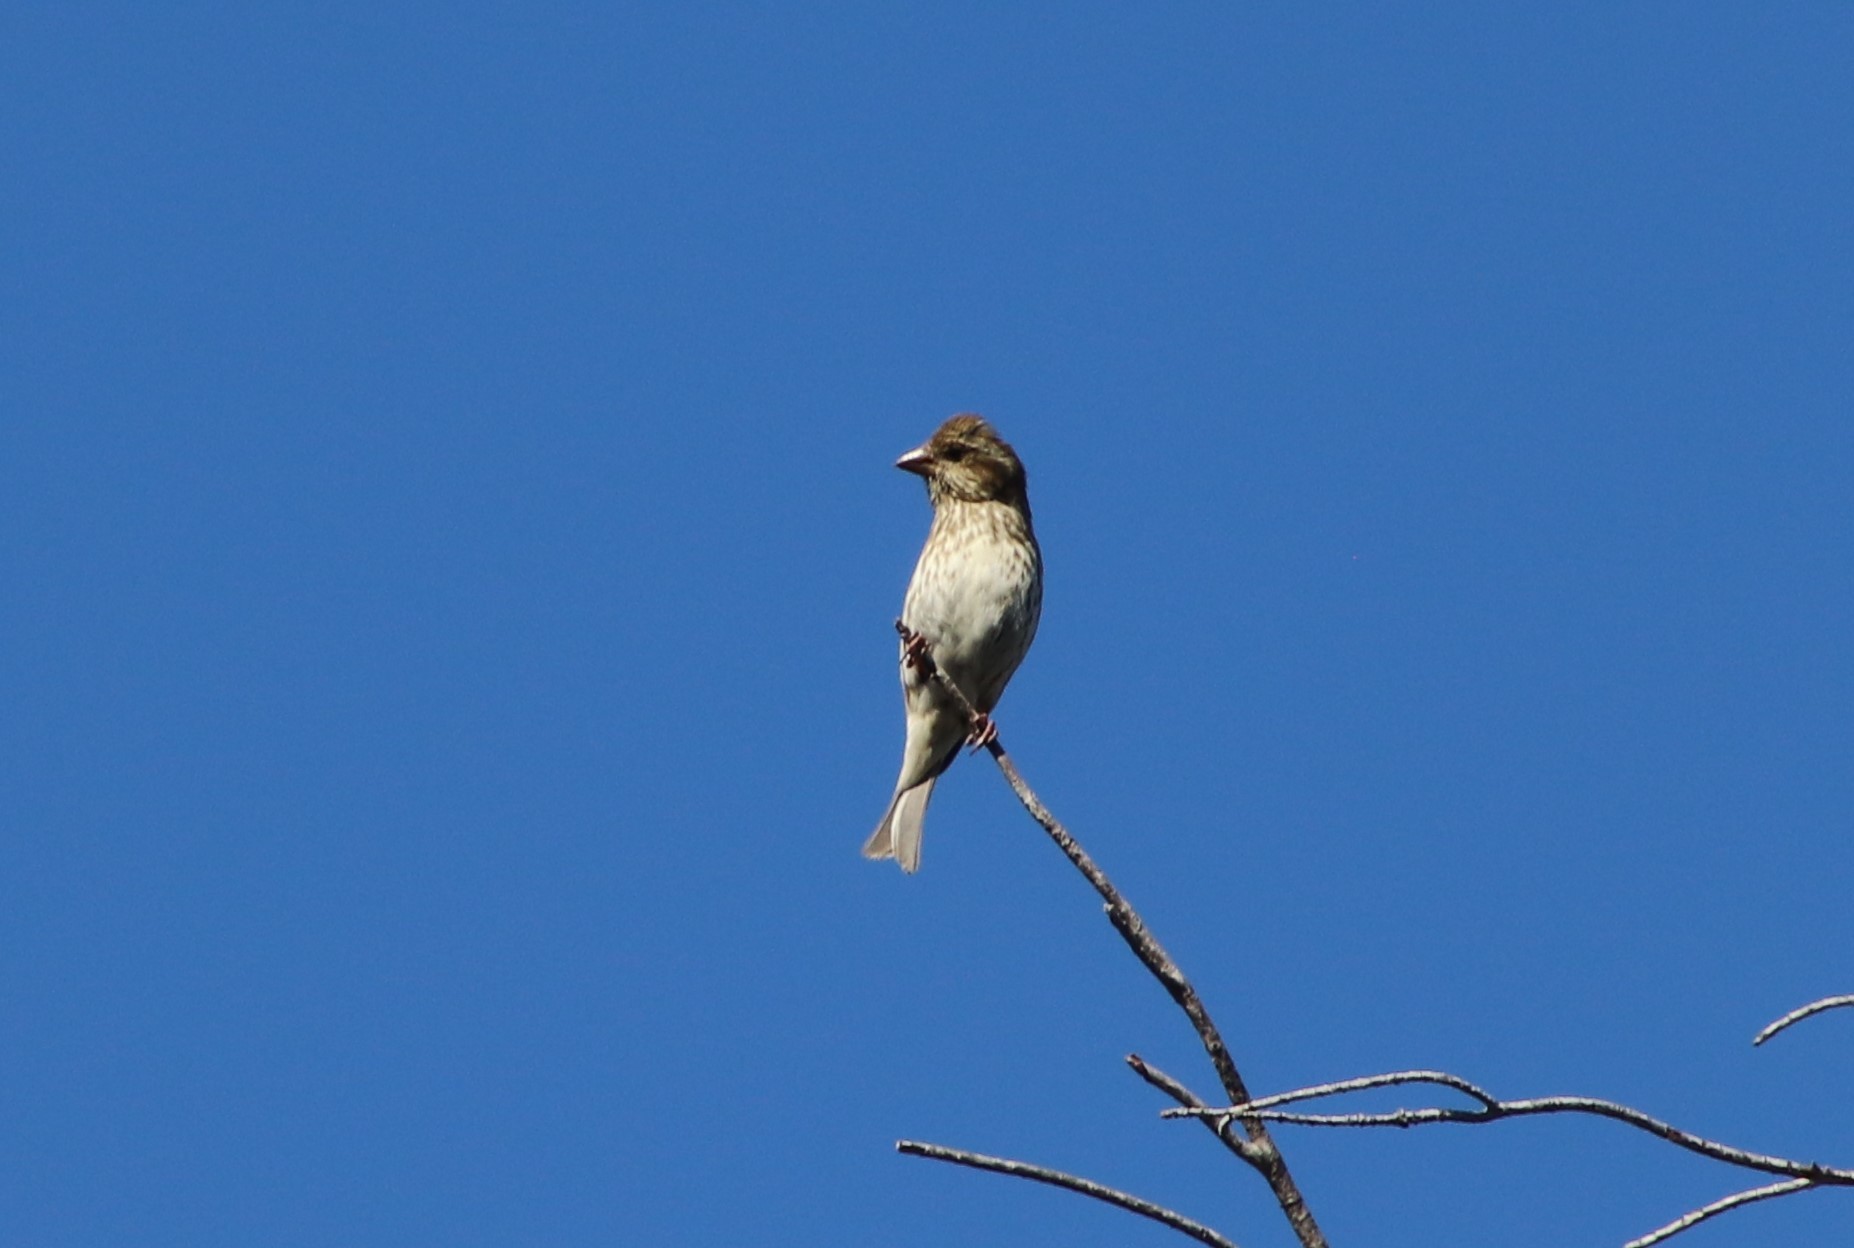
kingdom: Animalia
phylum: Chordata
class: Aves
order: Passeriformes
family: Fringillidae
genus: Haemorhous
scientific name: Haemorhous purpureus
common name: Purple finch
